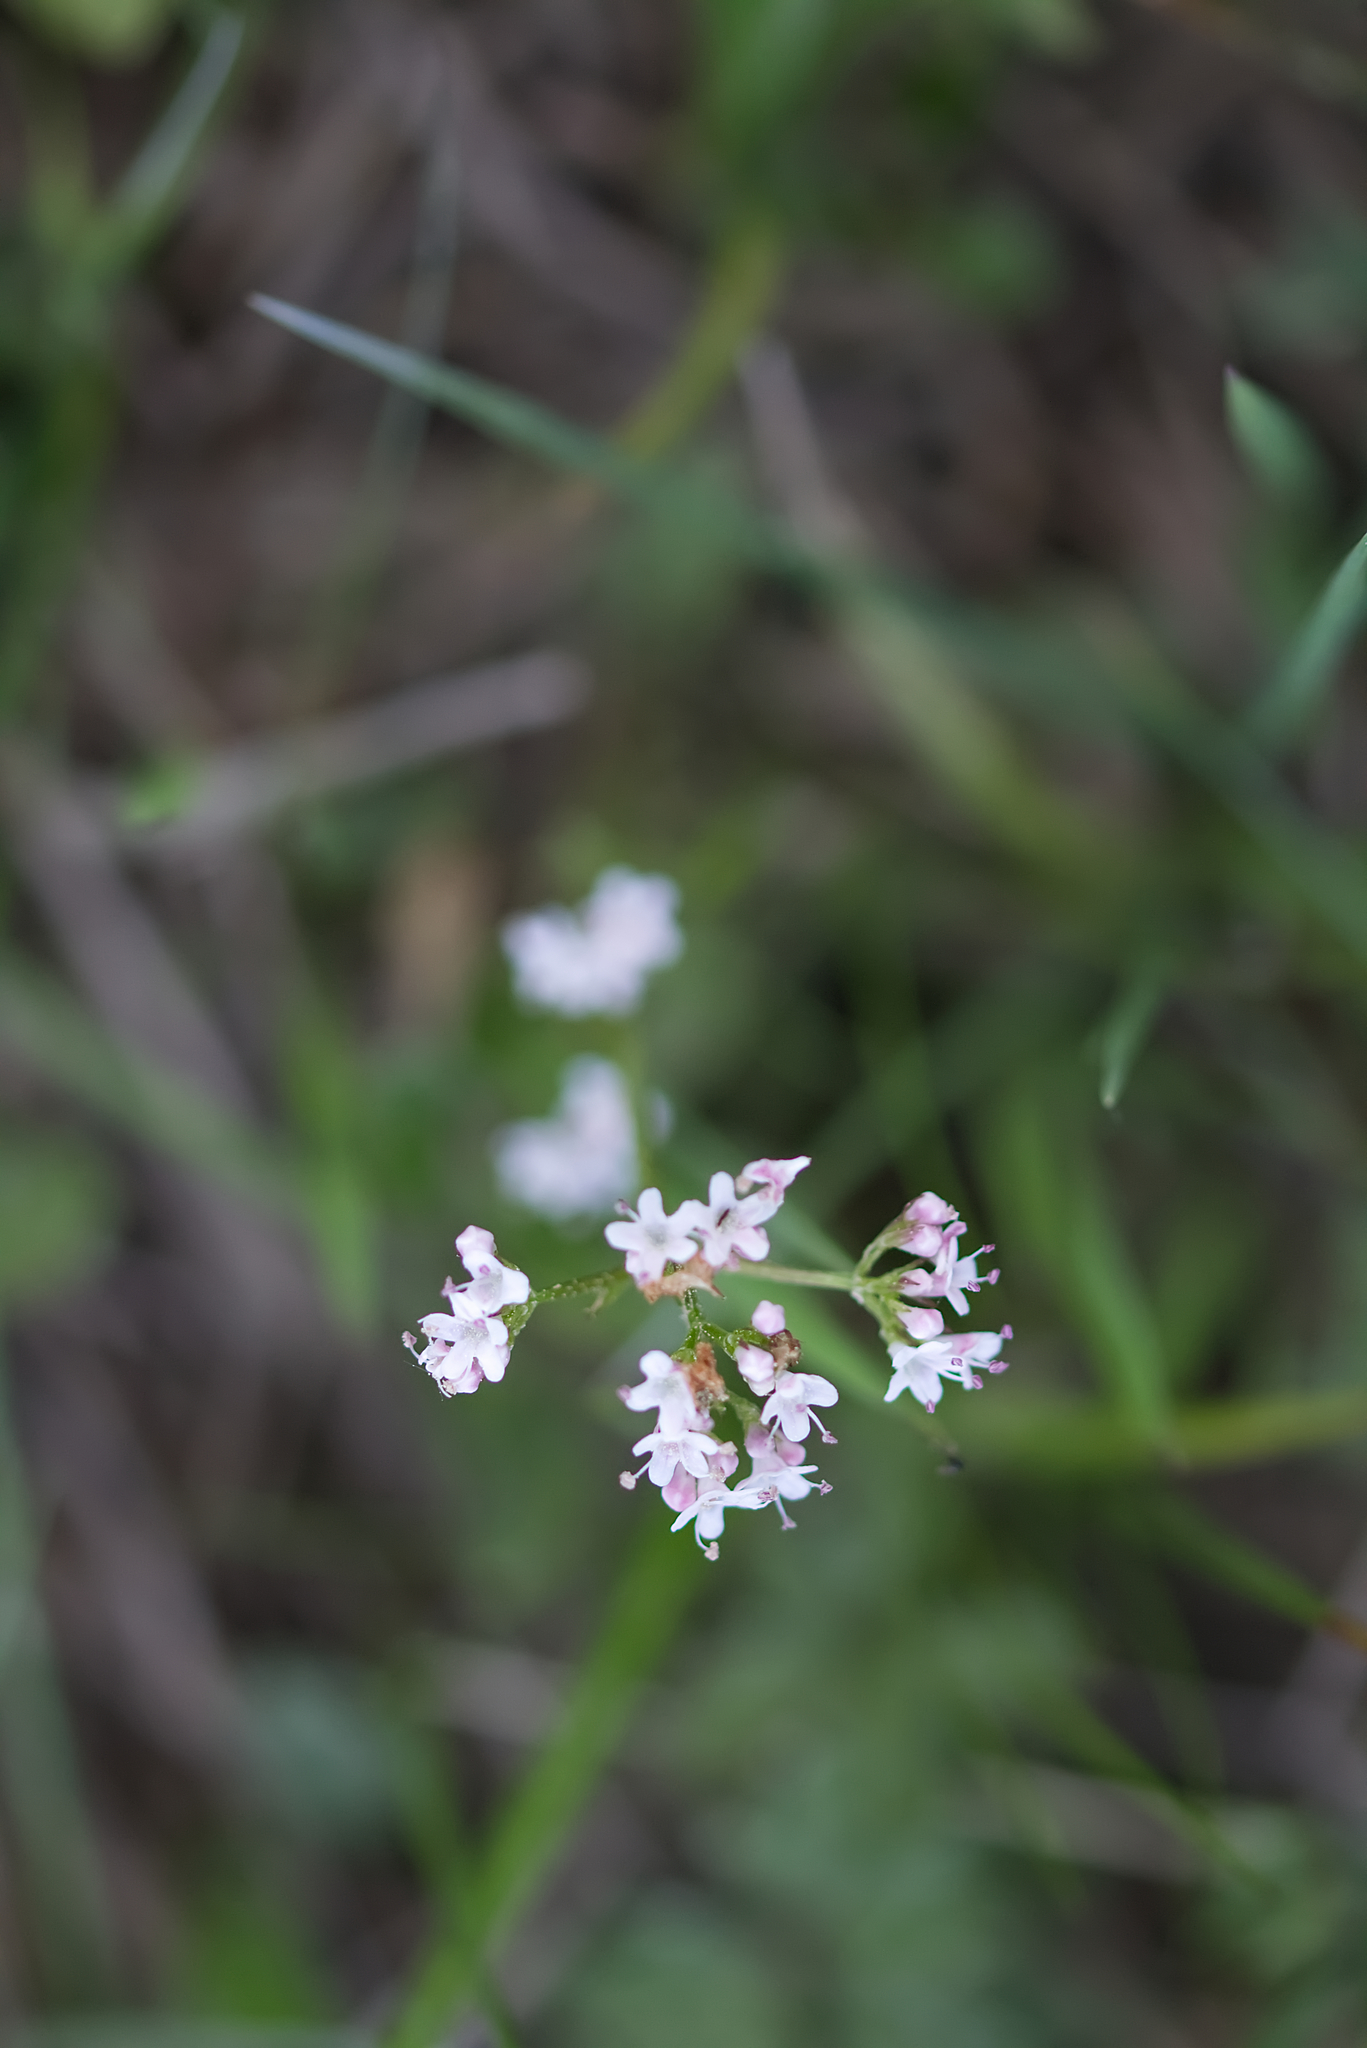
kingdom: Plantae
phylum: Tracheophyta
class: Magnoliopsida
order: Dipsacales
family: Caprifoliaceae
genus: Valeriana
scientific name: Valeriana dioica
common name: Marsh valerian
